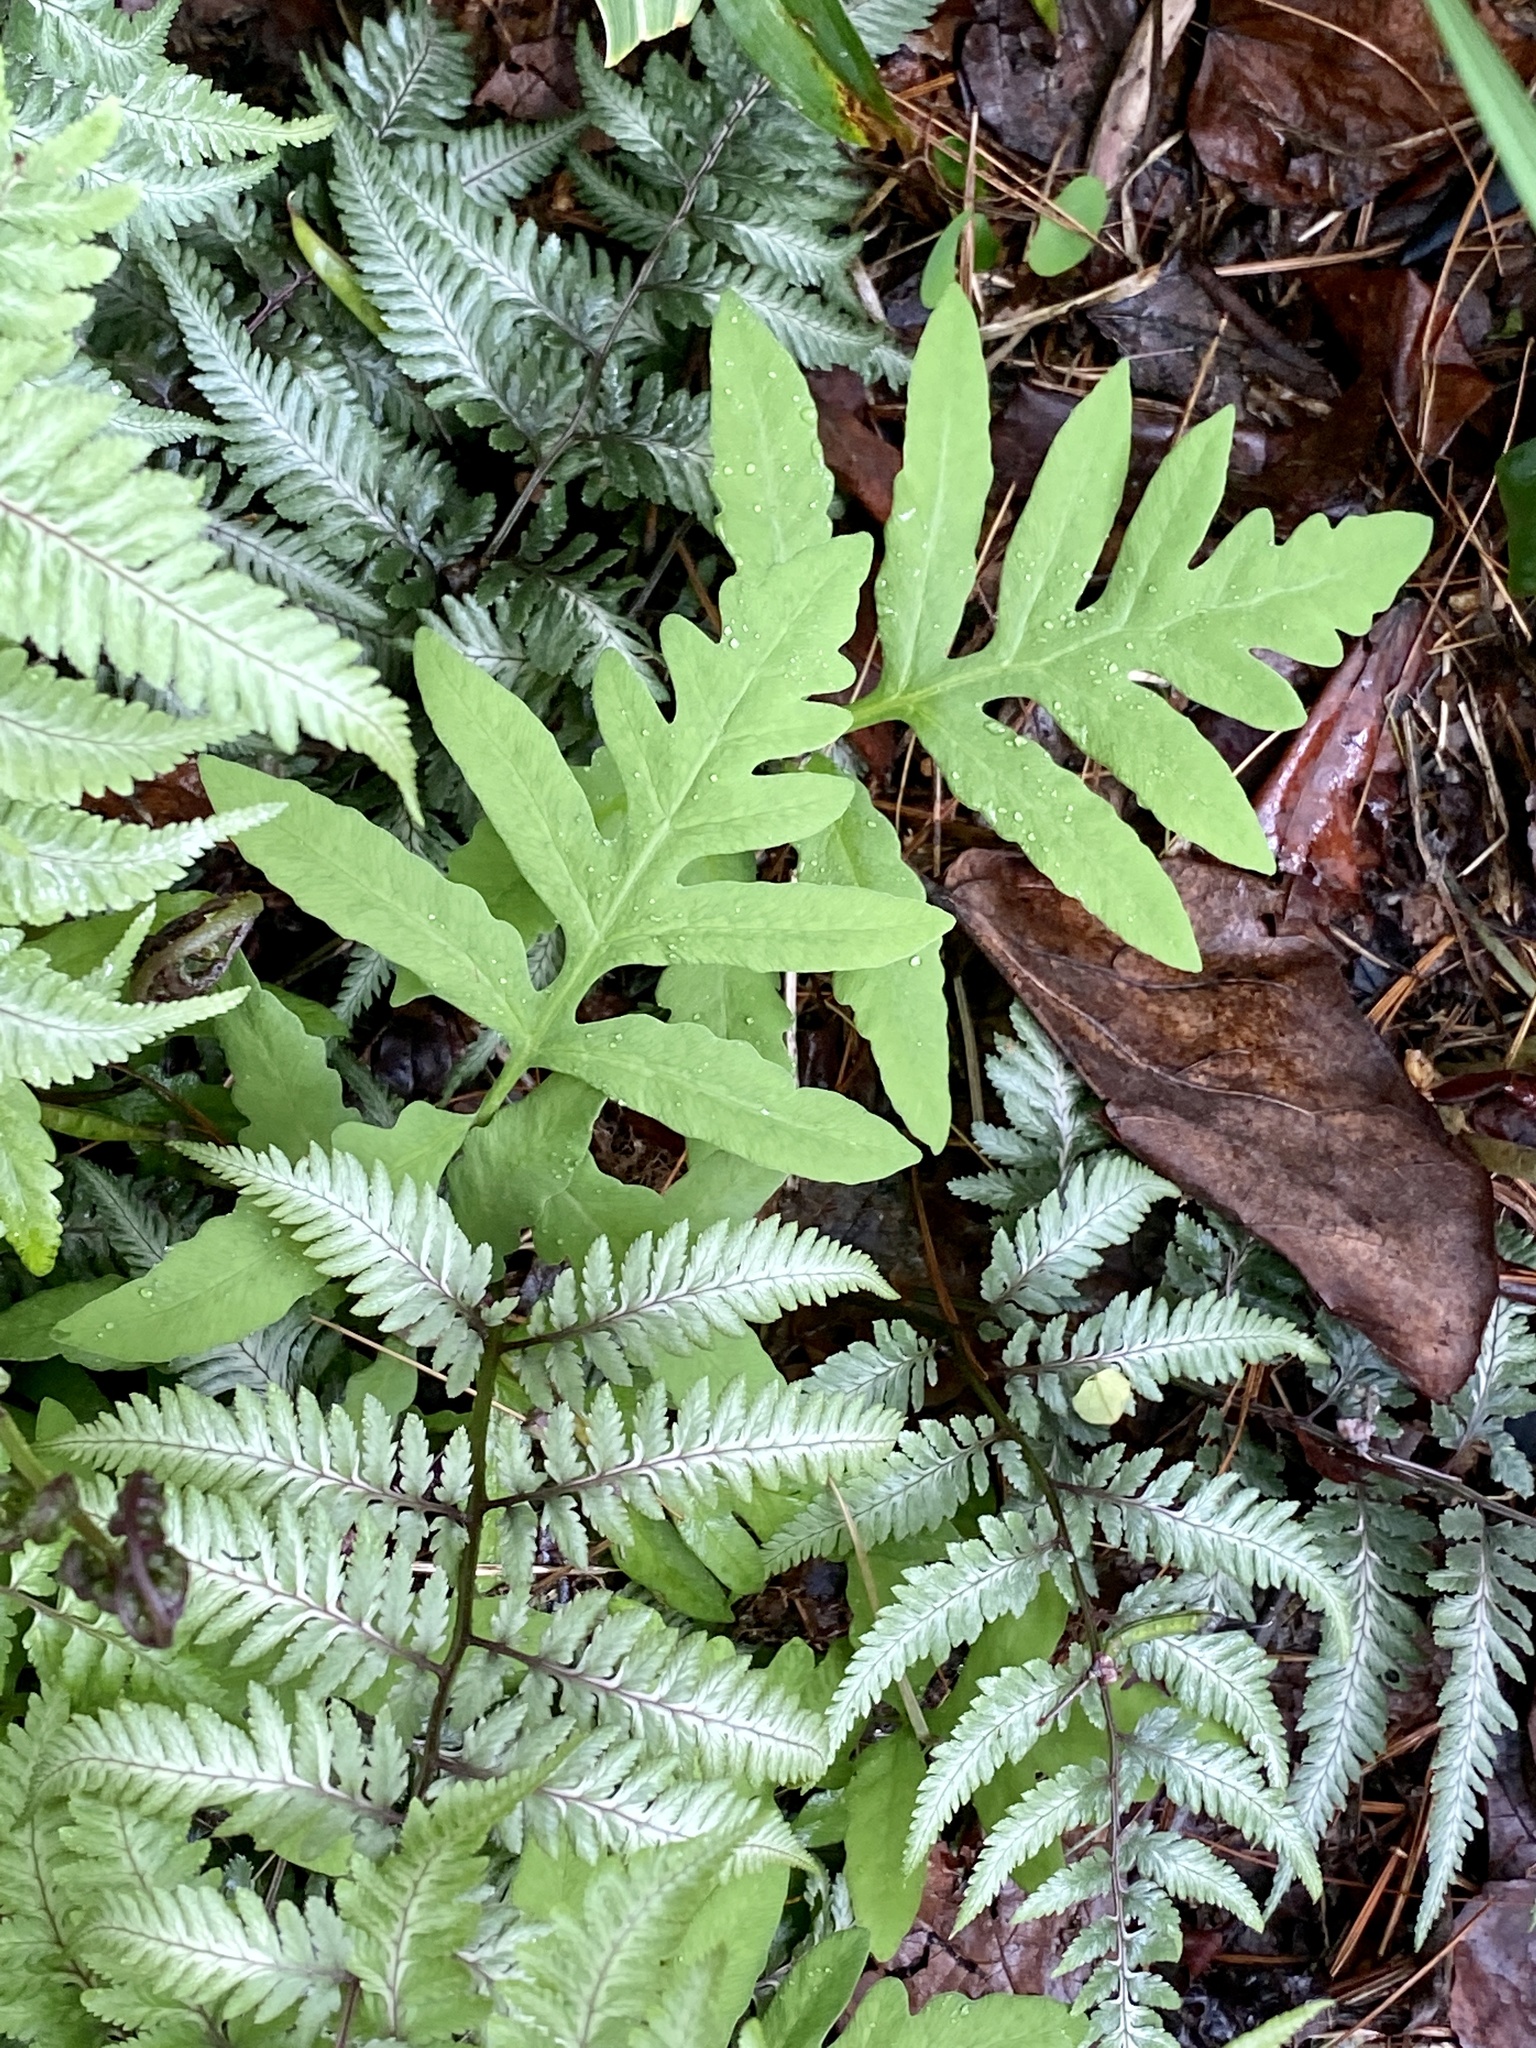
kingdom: Plantae
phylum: Tracheophyta
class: Polypodiopsida
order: Polypodiales
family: Onocleaceae
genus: Onoclea
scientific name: Onoclea sensibilis
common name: Sensitive fern
